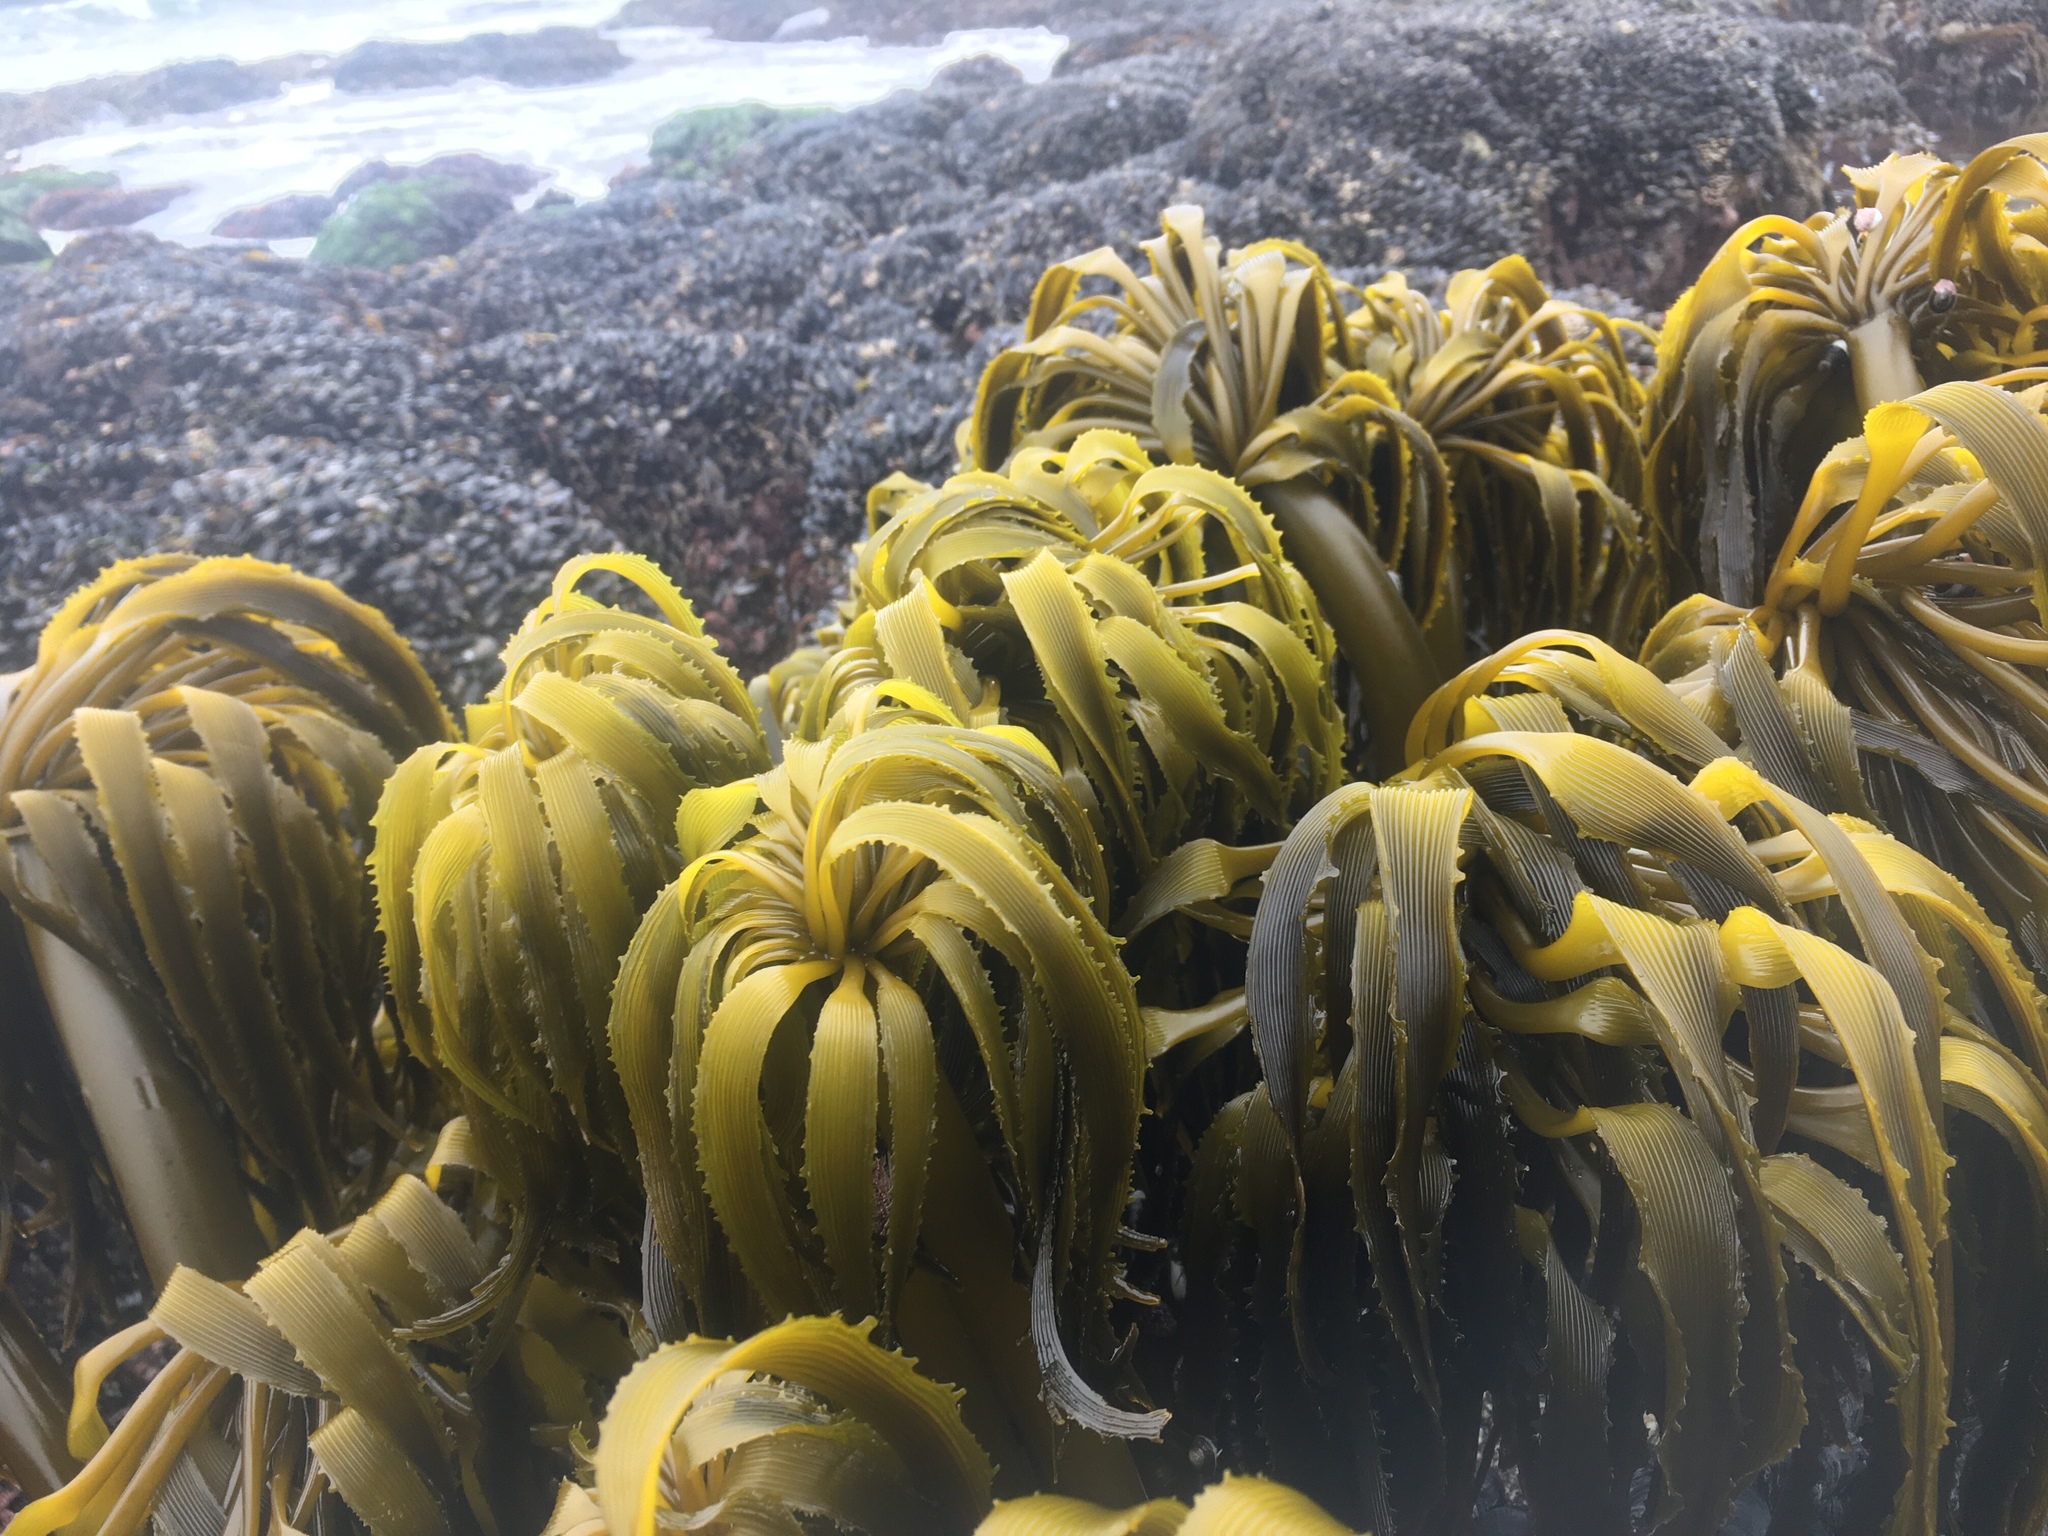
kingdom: Chromista
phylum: Ochrophyta
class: Phaeophyceae
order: Laminariales
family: Laminariaceae
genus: Postelsia
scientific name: Postelsia palmiformis
